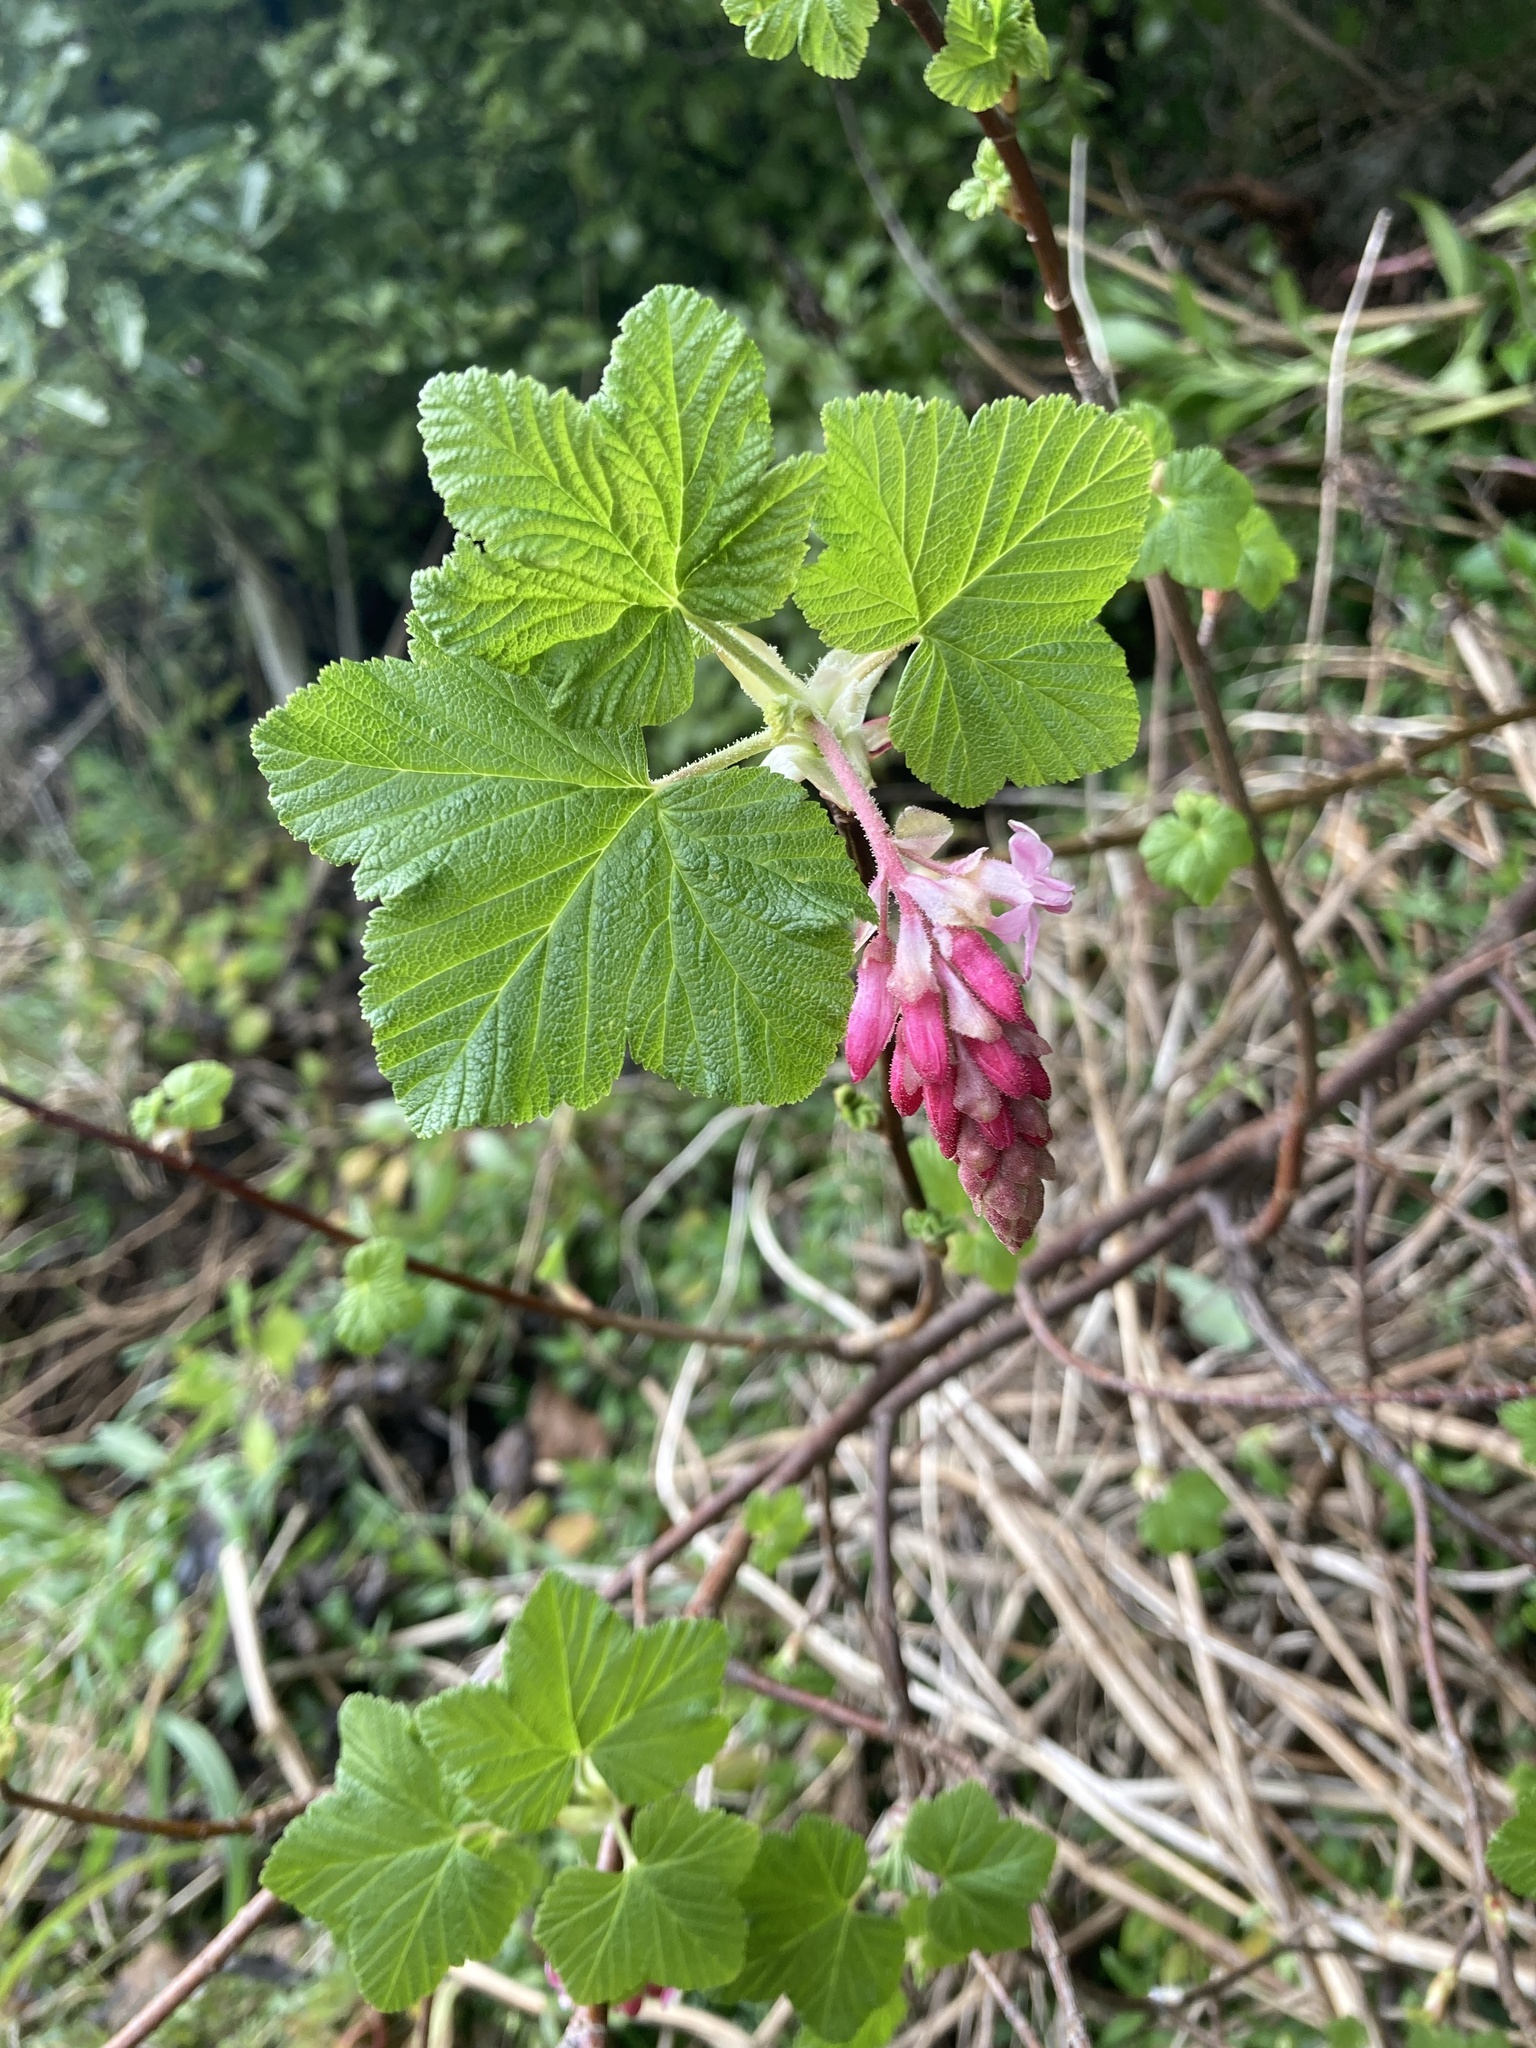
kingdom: Plantae
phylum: Tracheophyta
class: Magnoliopsida
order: Saxifragales
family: Grossulariaceae
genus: Ribes
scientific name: Ribes sanguineum
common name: Flowering currant
